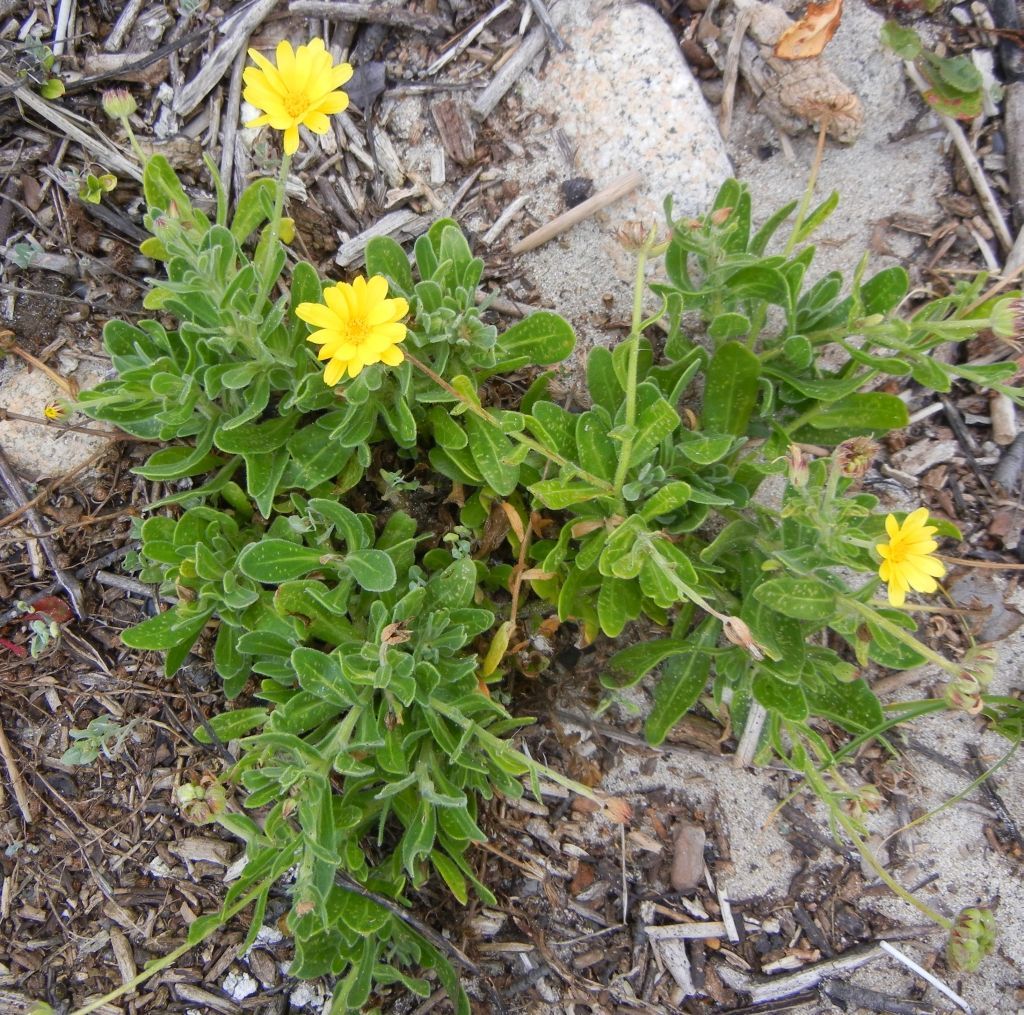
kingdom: Plantae
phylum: Tracheophyta
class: Magnoliopsida
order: Asterales
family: Asteraceae
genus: Calendula
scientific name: Calendula officinalis
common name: Pot marigold
